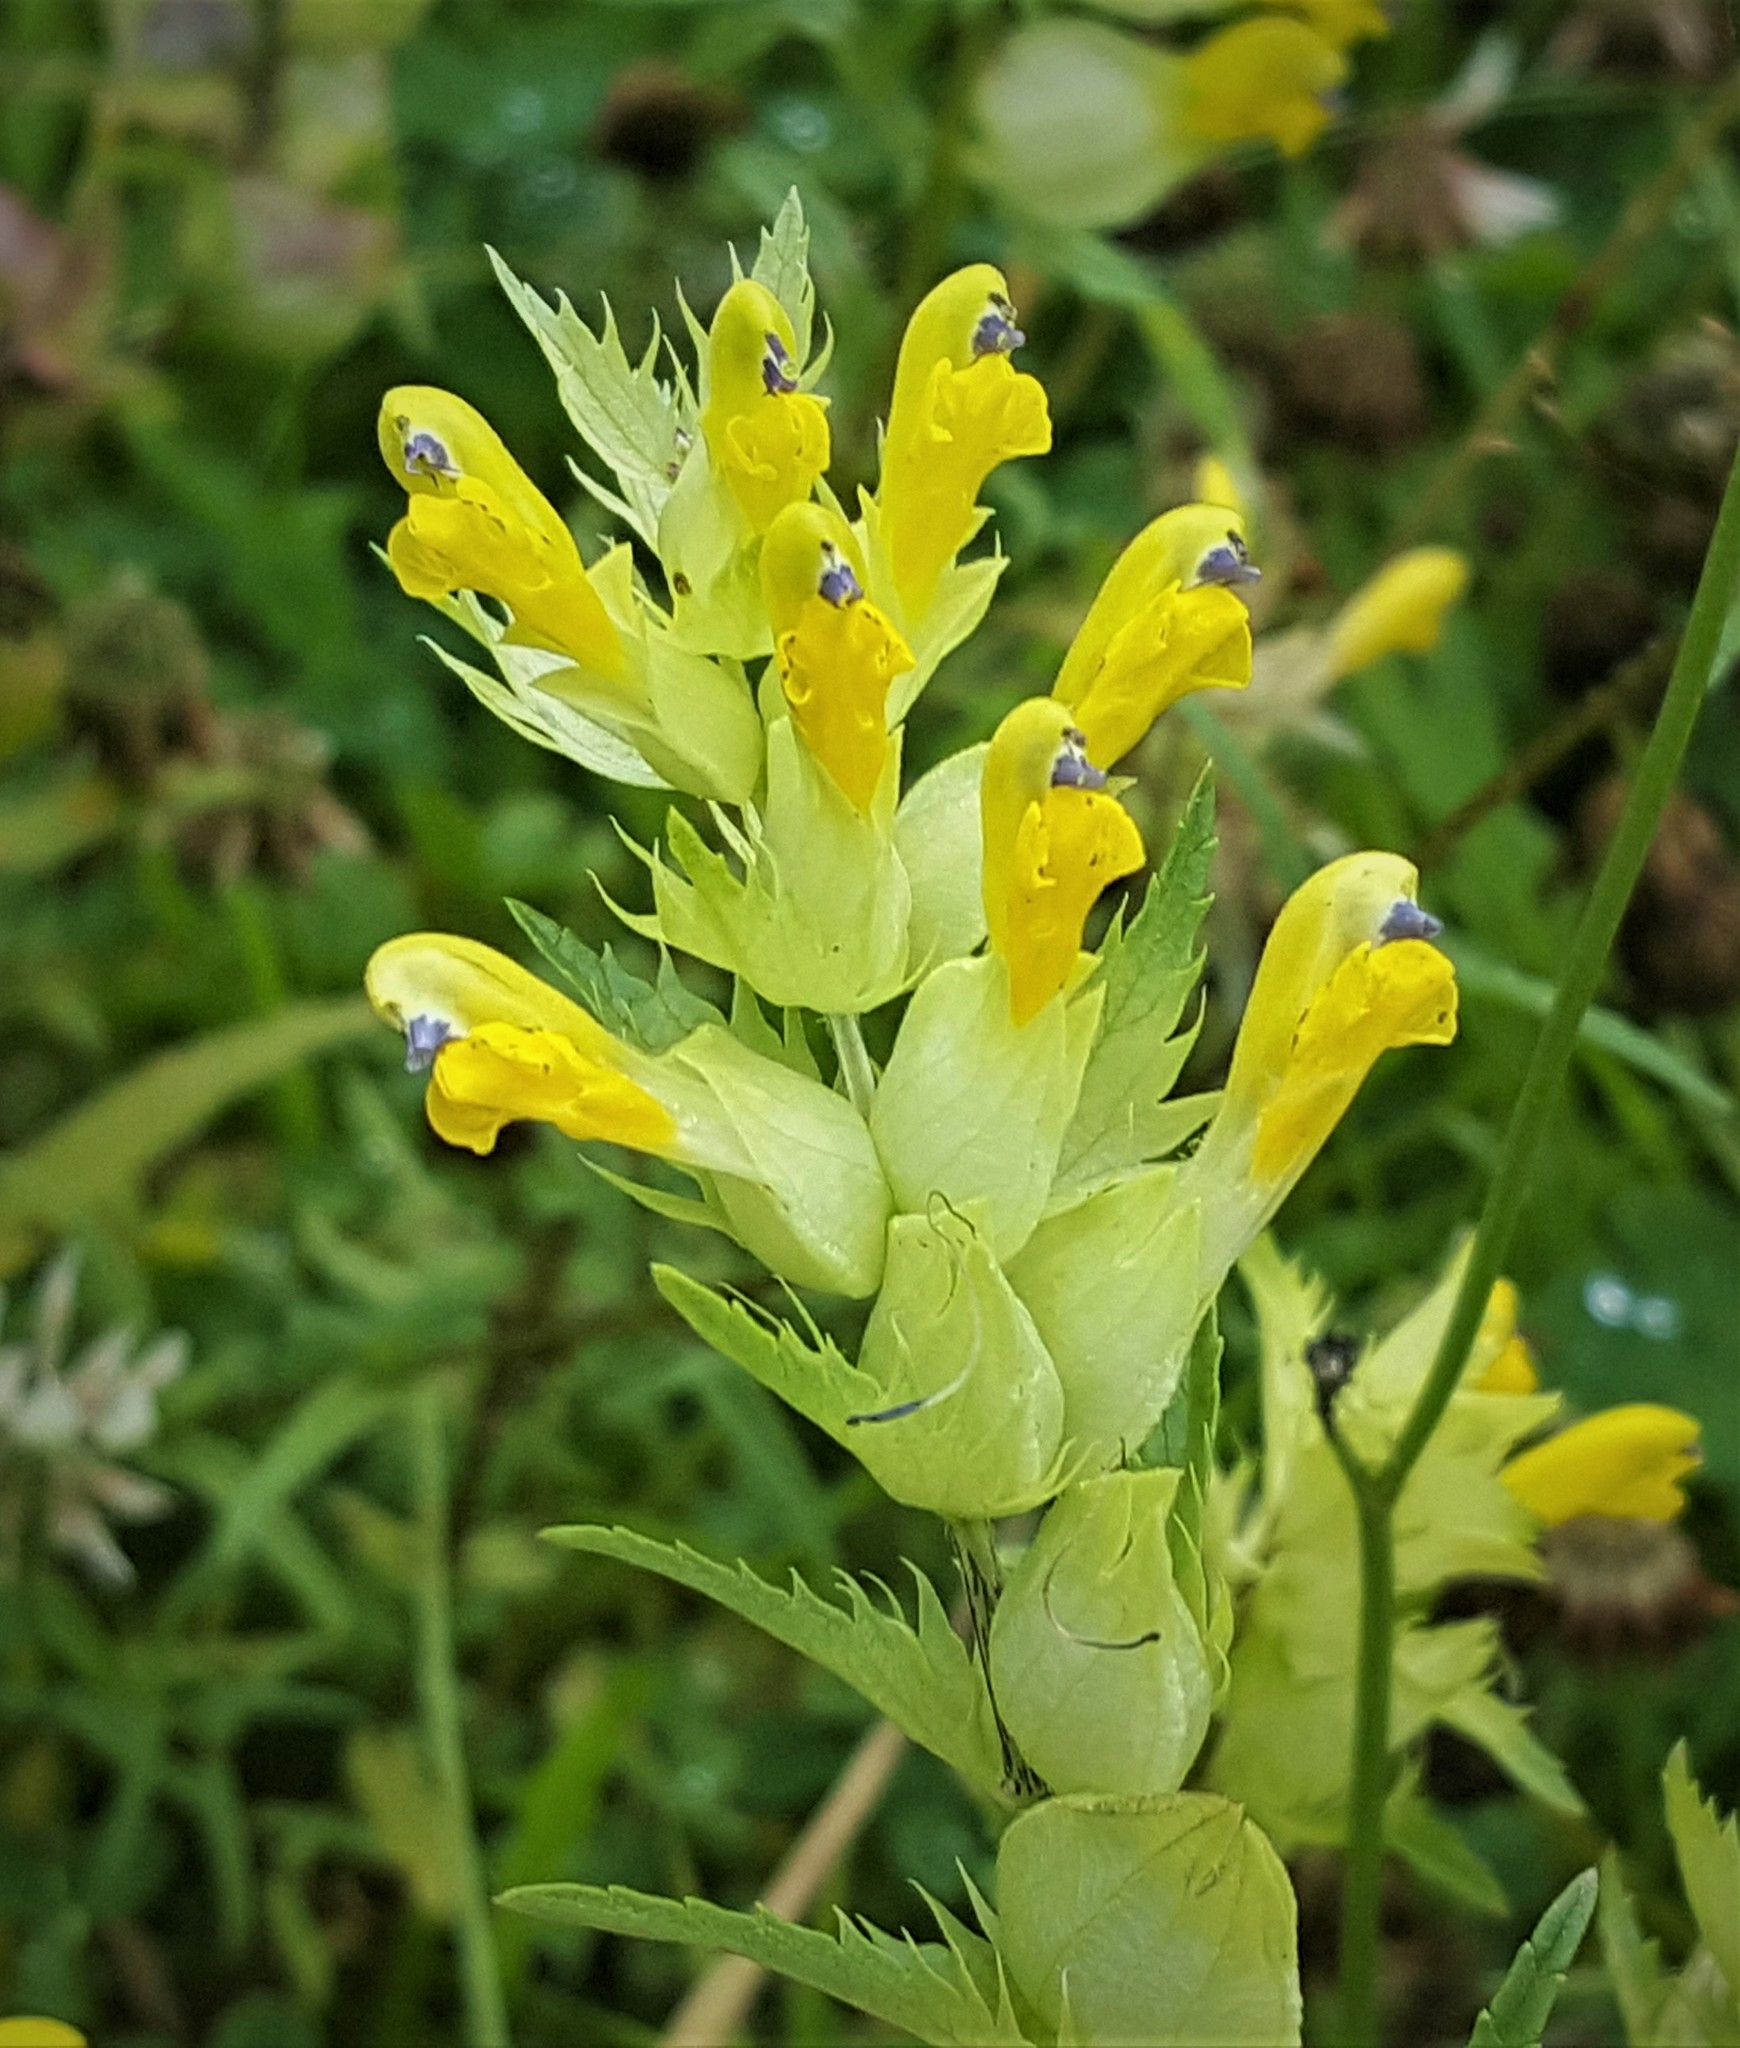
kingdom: Plantae
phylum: Tracheophyta
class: Magnoliopsida
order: Lamiales
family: Orobanchaceae
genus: Rhinanthus
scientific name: Rhinanthus minor
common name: Yellow-rattle
